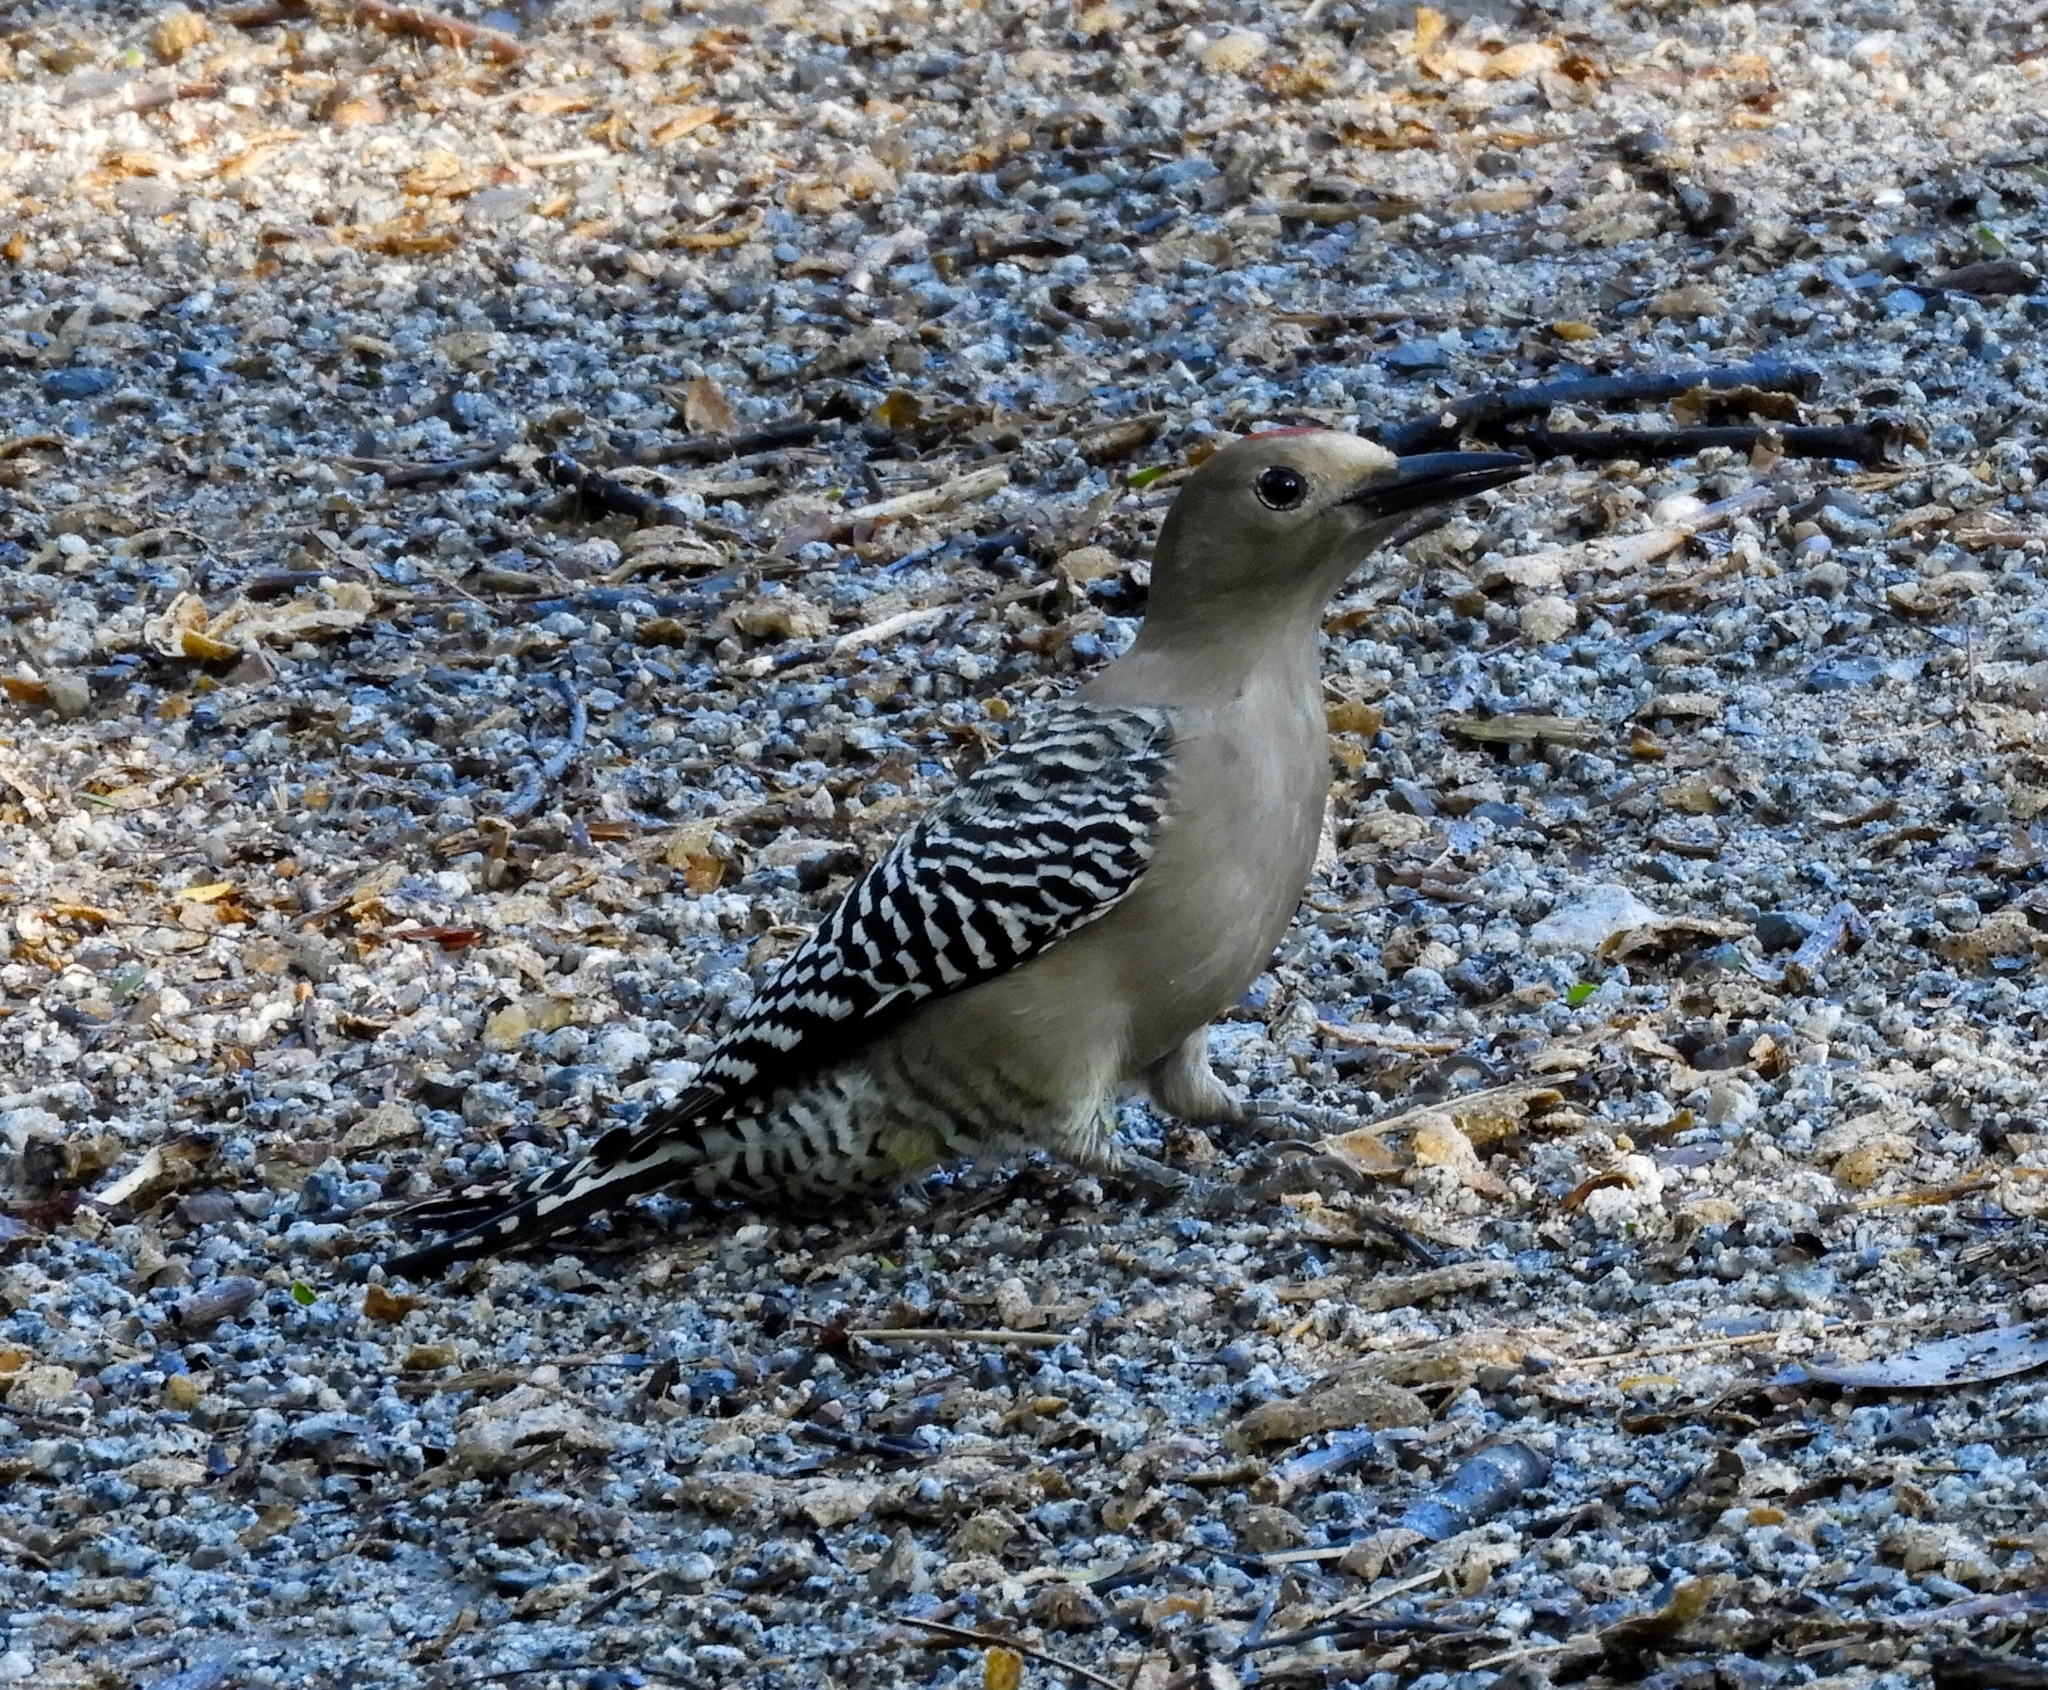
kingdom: Animalia
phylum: Chordata
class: Aves
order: Piciformes
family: Picidae
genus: Melanerpes
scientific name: Melanerpes uropygialis
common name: Gila woodpecker
